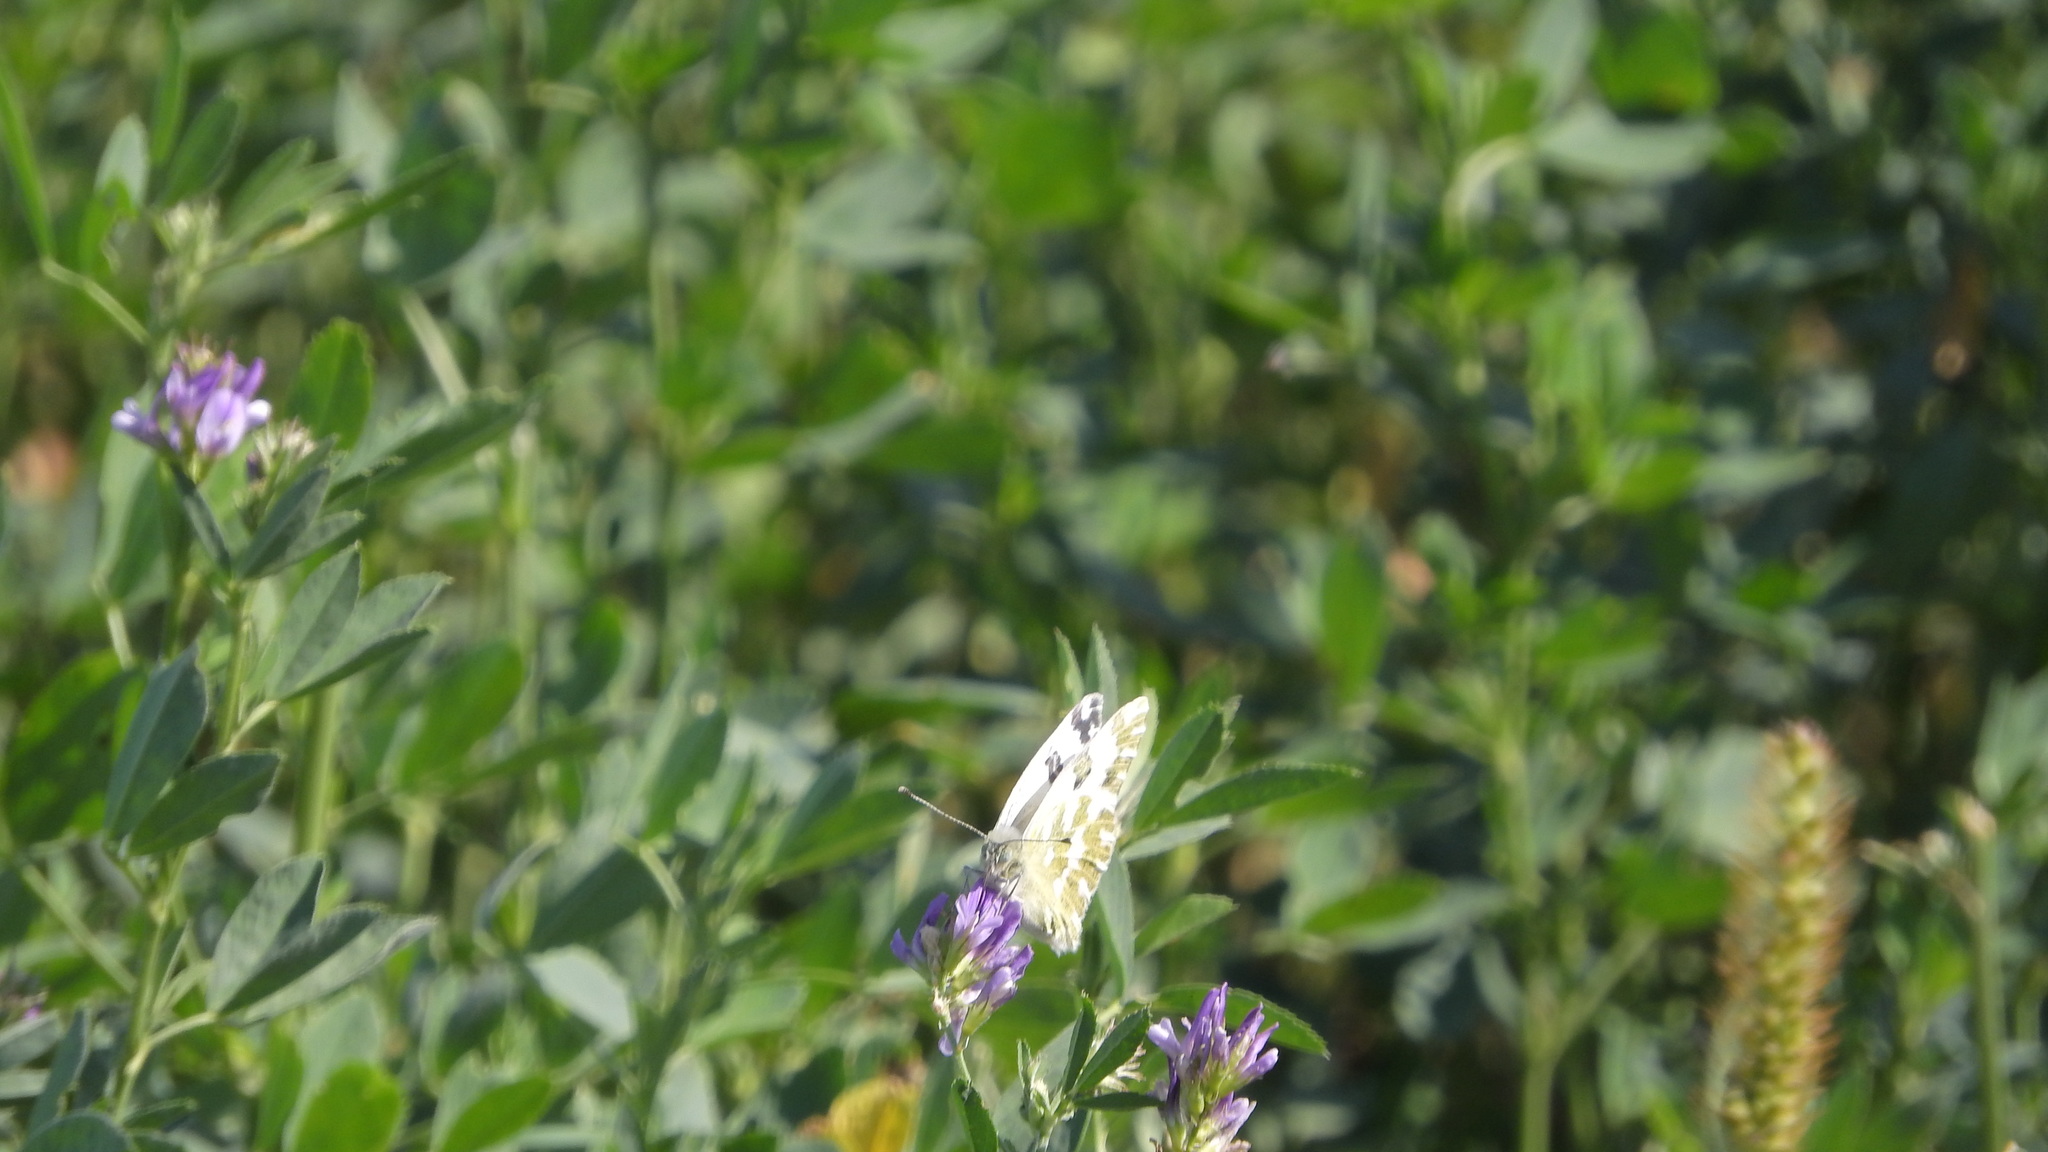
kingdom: Animalia
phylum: Arthropoda
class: Insecta
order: Lepidoptera
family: Pieridae
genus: Pontia
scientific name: Pontia edusa
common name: Eastern bath white
